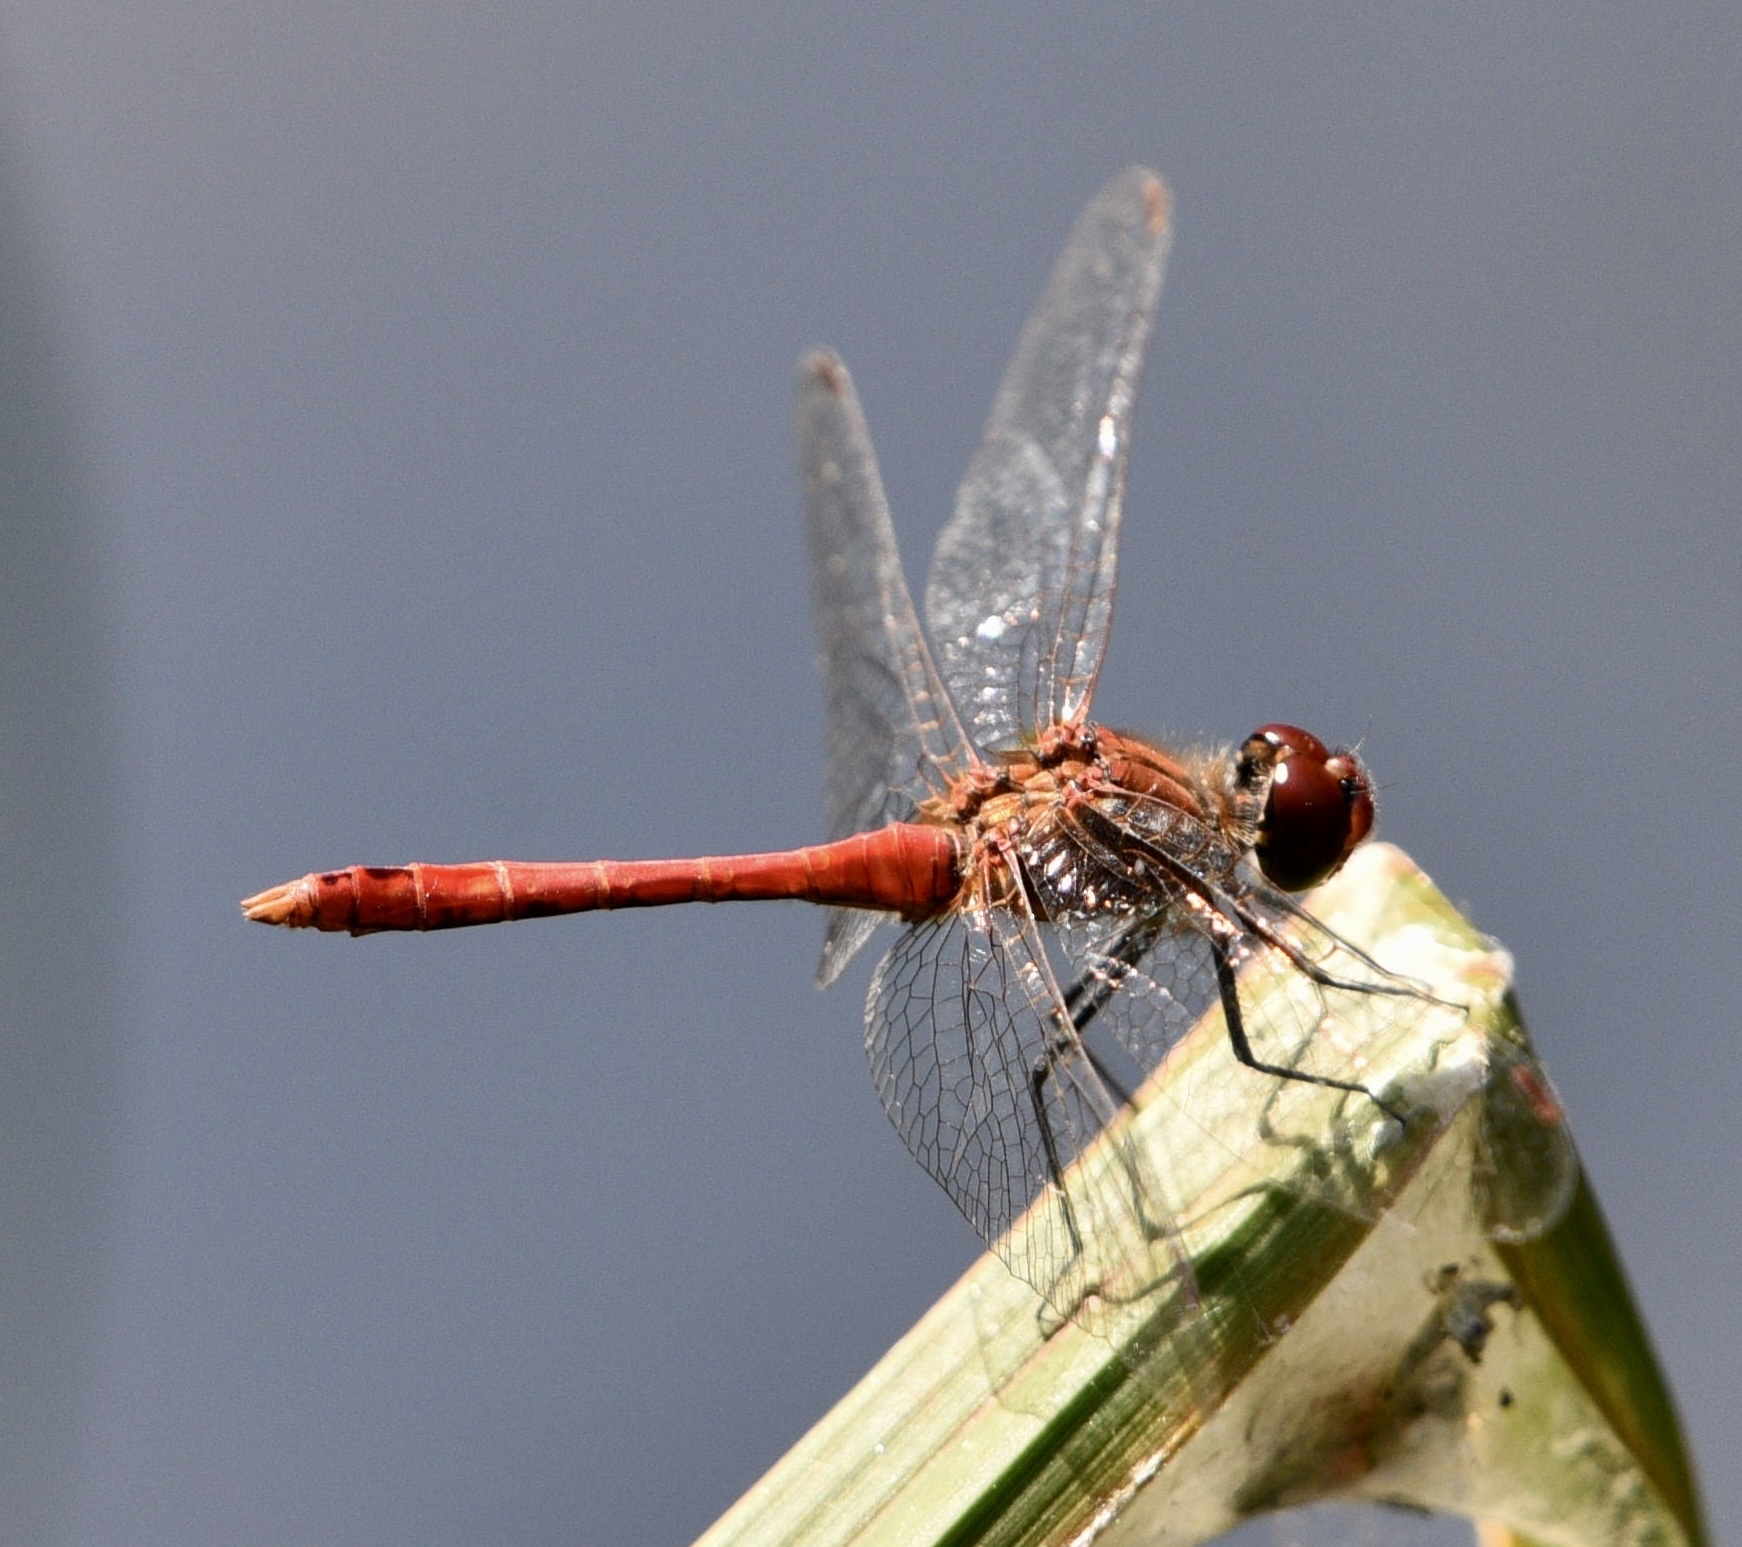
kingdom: Animalia
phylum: Arthropoda
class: Insecta
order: Odonata
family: Libellulidae
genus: Sympetrum
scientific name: Sympetrum sanguineum
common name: Ruddy darter
